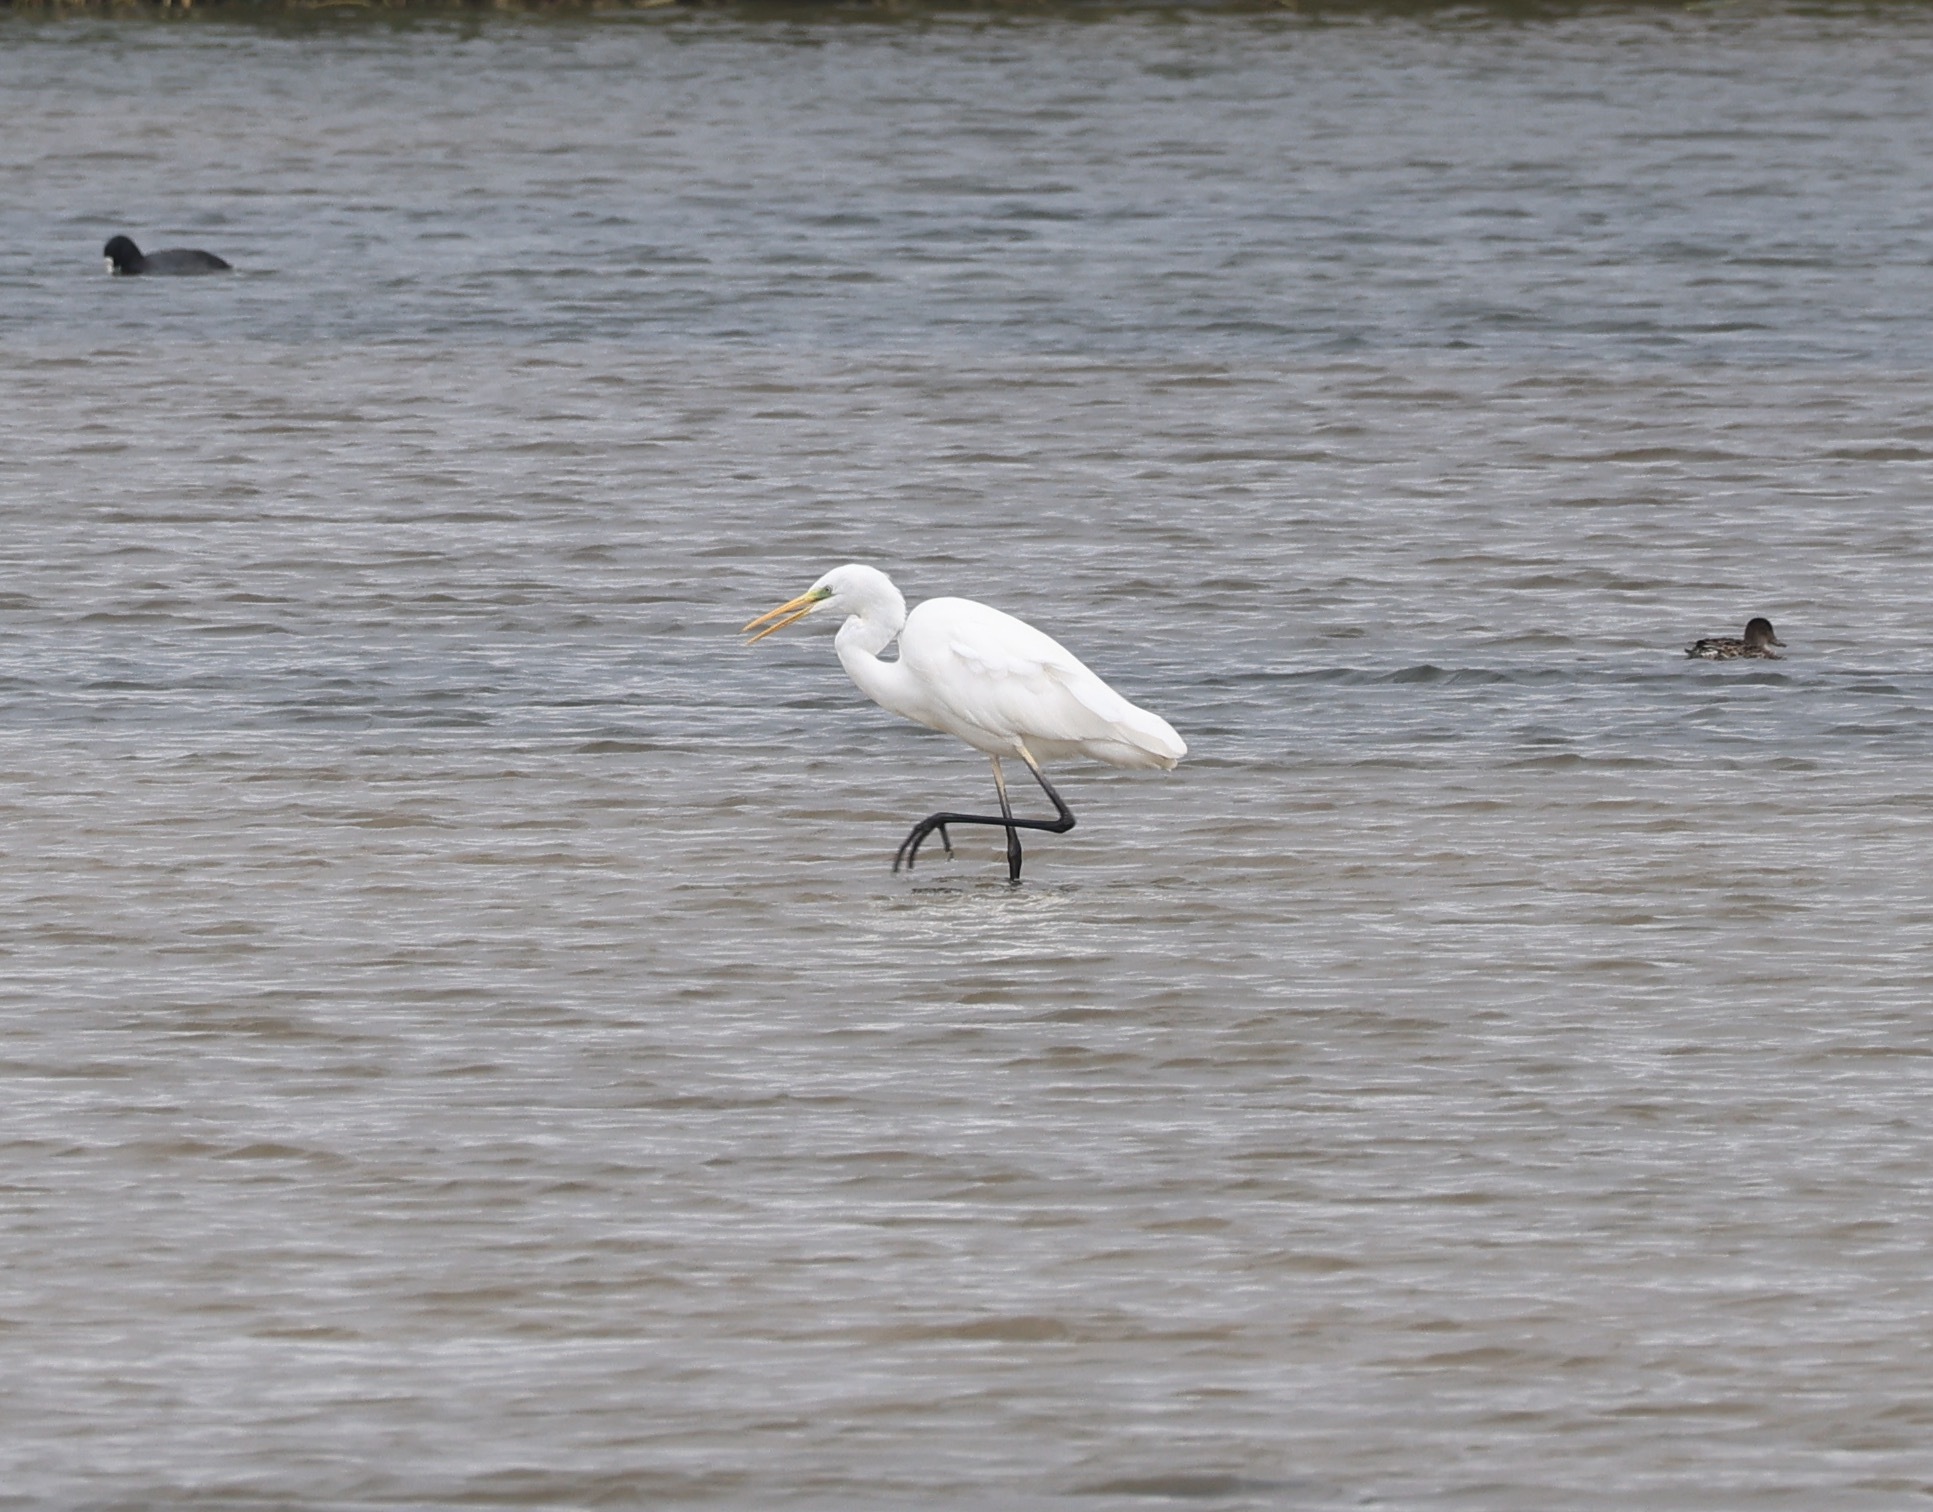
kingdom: Animalia
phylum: Chordata
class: Aves
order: Pelecaniformes
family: Ardeidae
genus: Ardea
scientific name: Ardea alba
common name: Great egret
